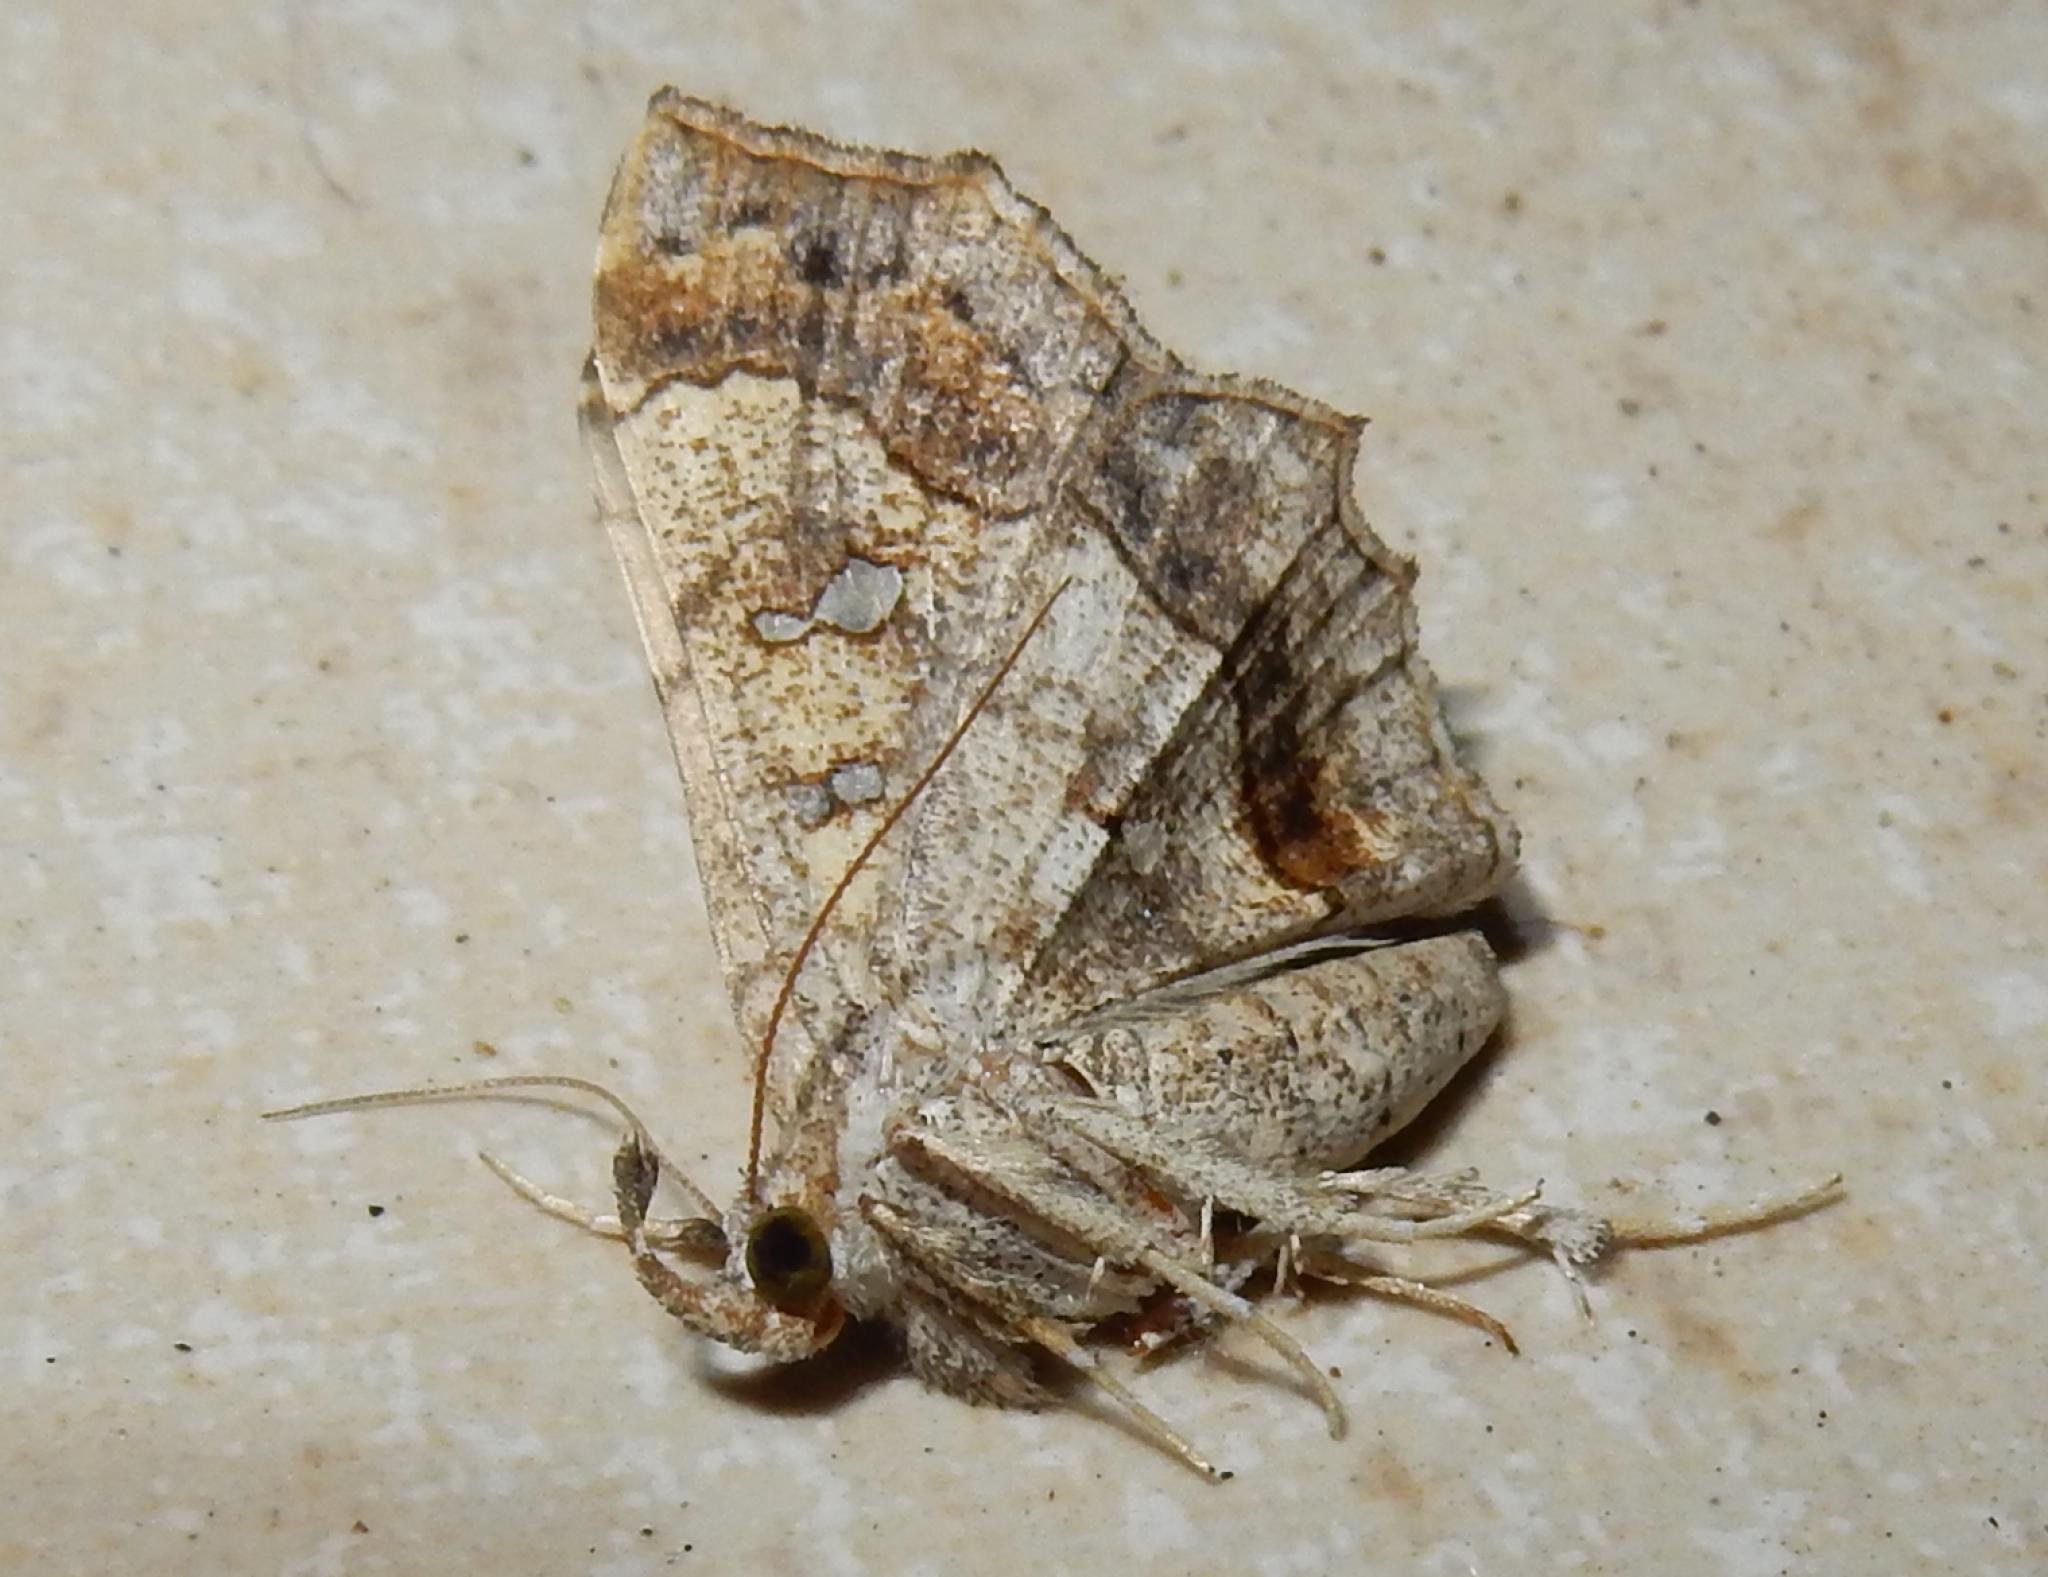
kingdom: Animalia
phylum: Arthropoda
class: Insecta
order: Lepidoptera
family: Erebidae
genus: Egnasia
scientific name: Egnasia vicaria
